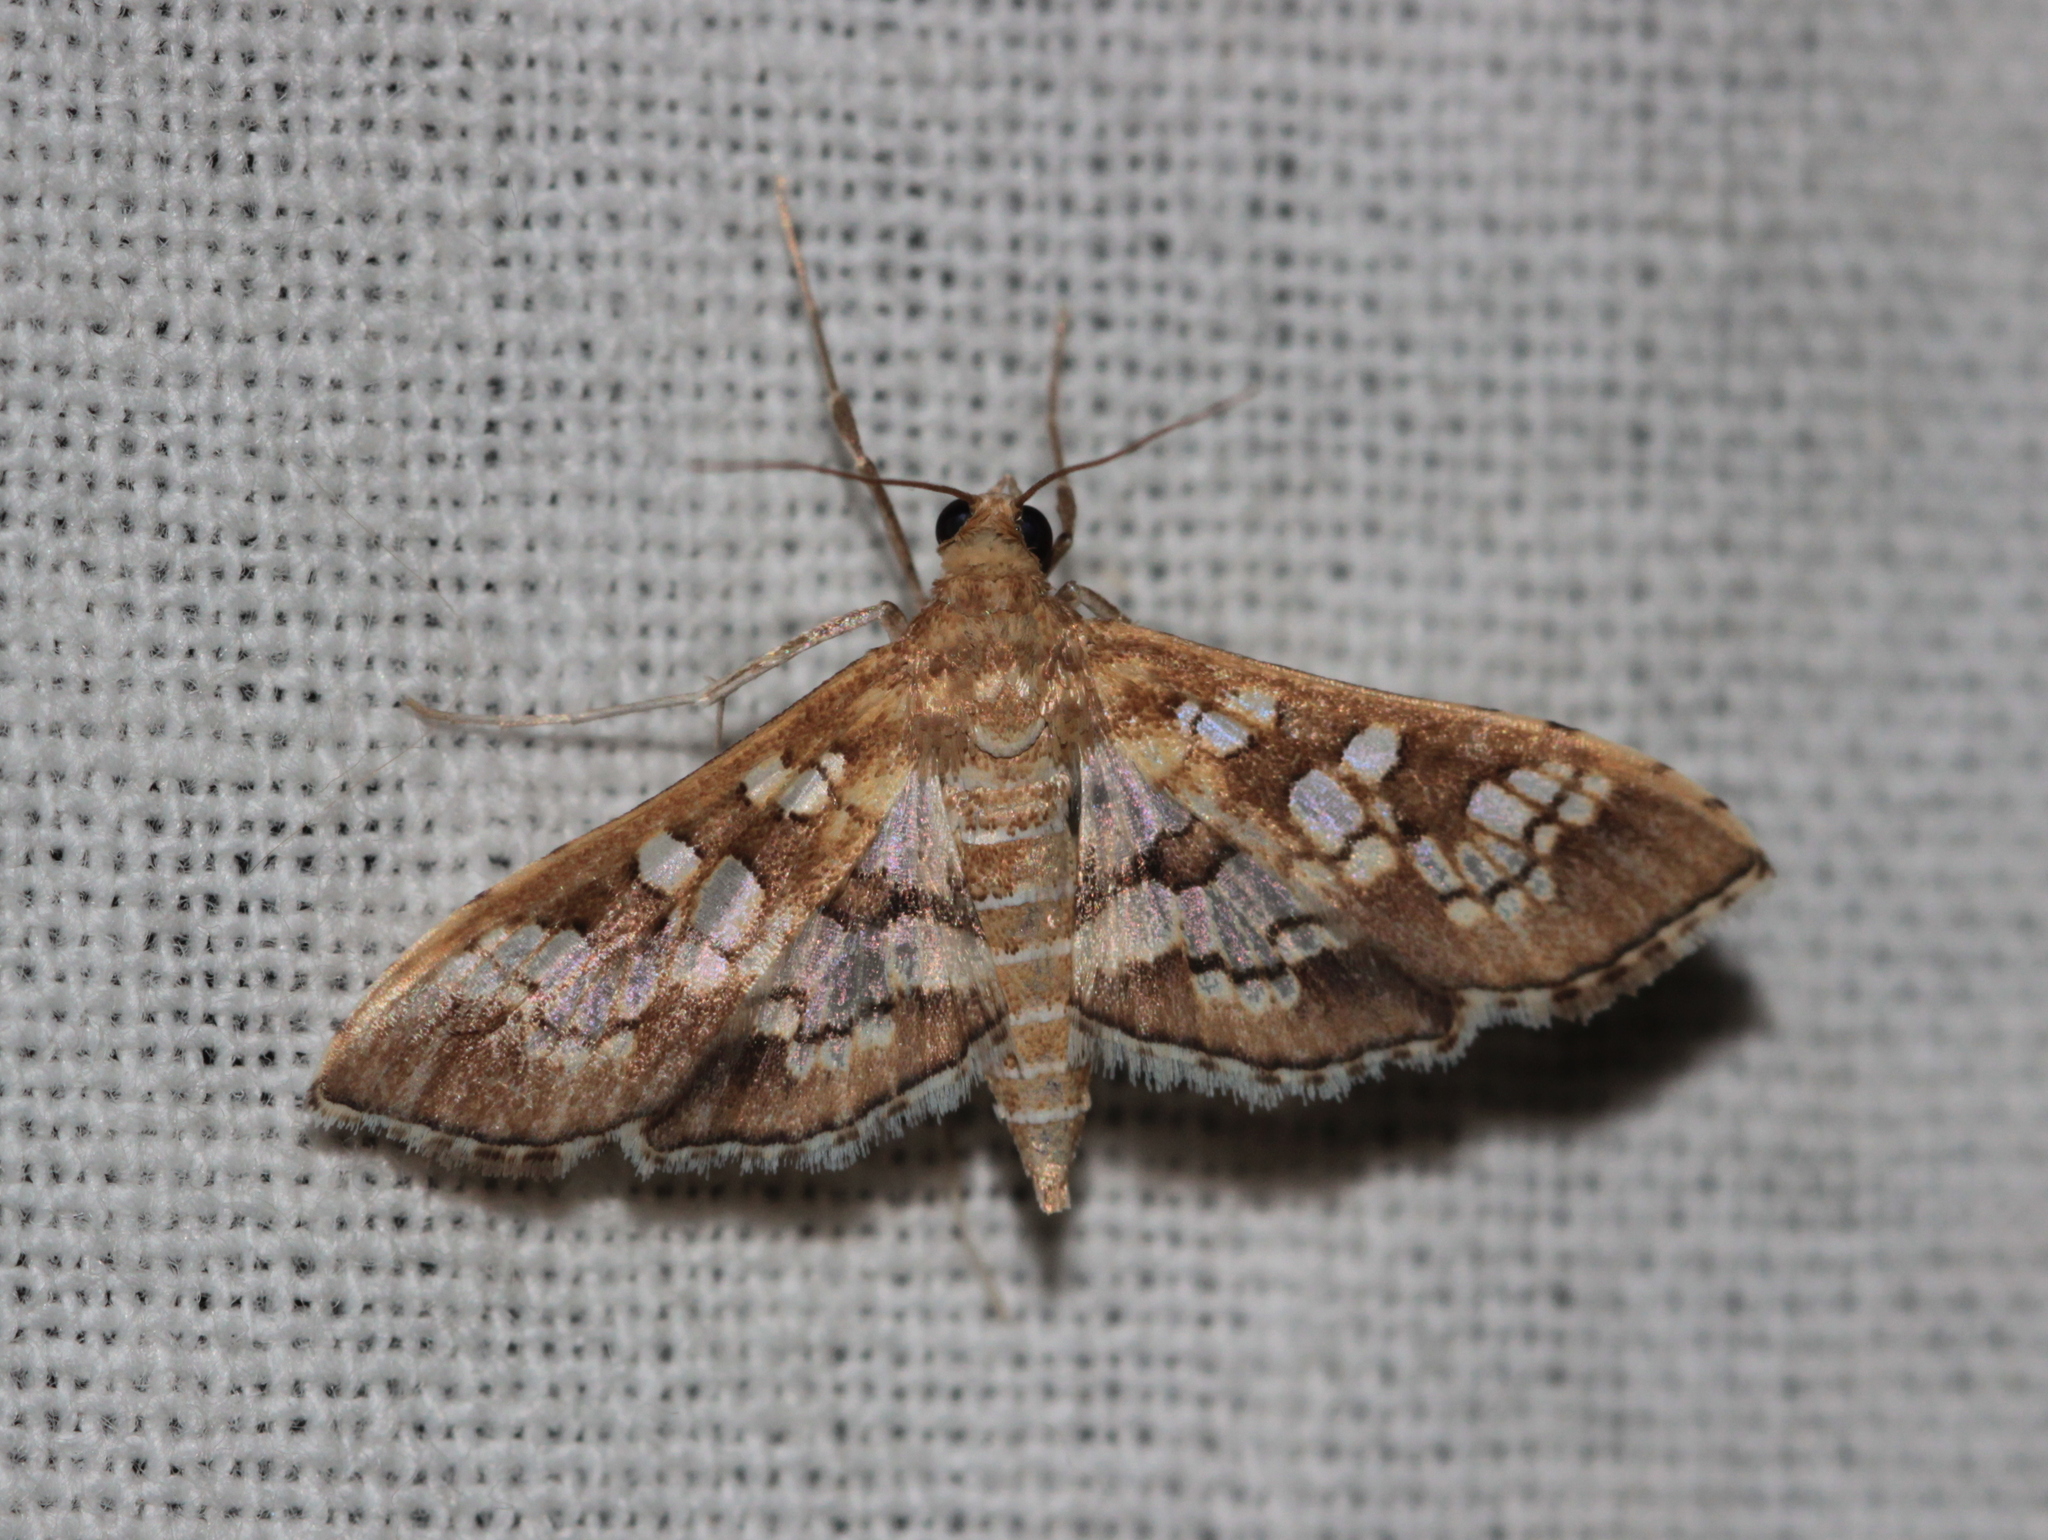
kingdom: Animalia
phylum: Arthropoda
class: Insecta
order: Lepidoptera
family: Crambidae
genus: Sameodes
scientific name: Sameodes cancellalis
